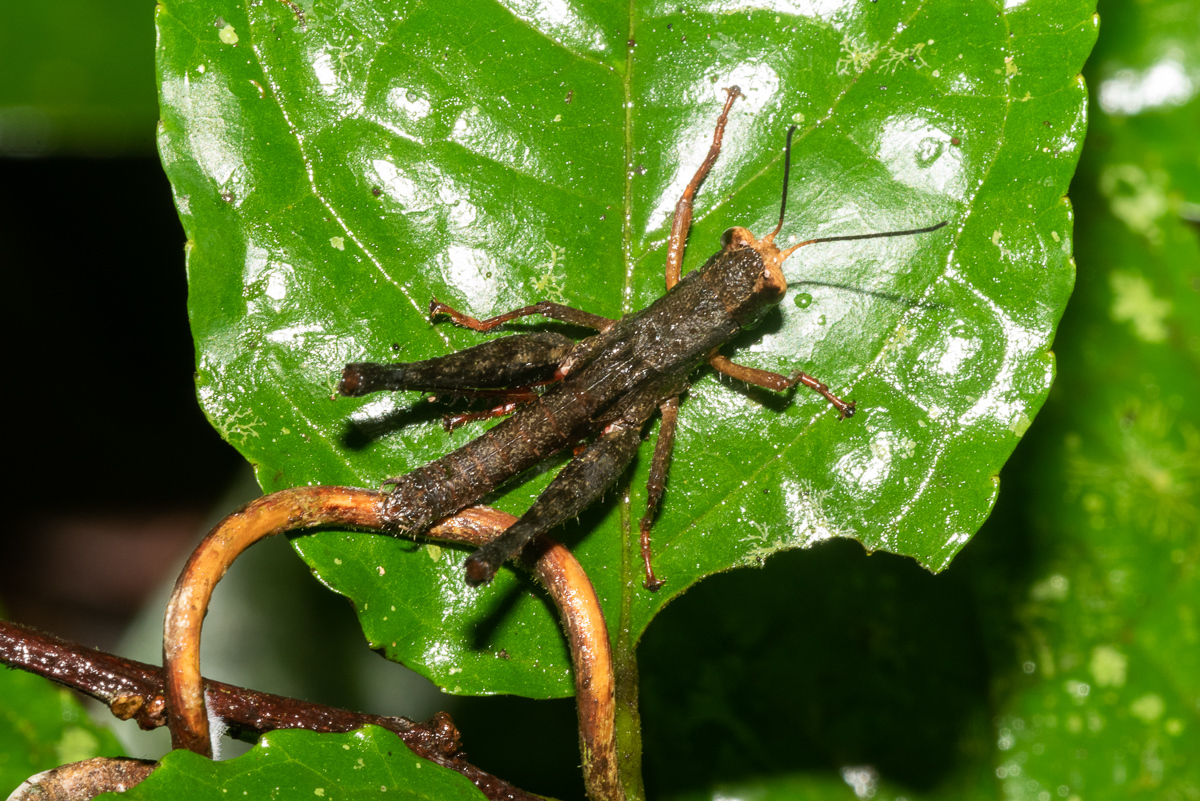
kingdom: Animalia
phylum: Arthropoda
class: Insecta
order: Orthoptera
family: Romaleidae
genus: Maculiparia
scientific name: Maculiparia obtusa
